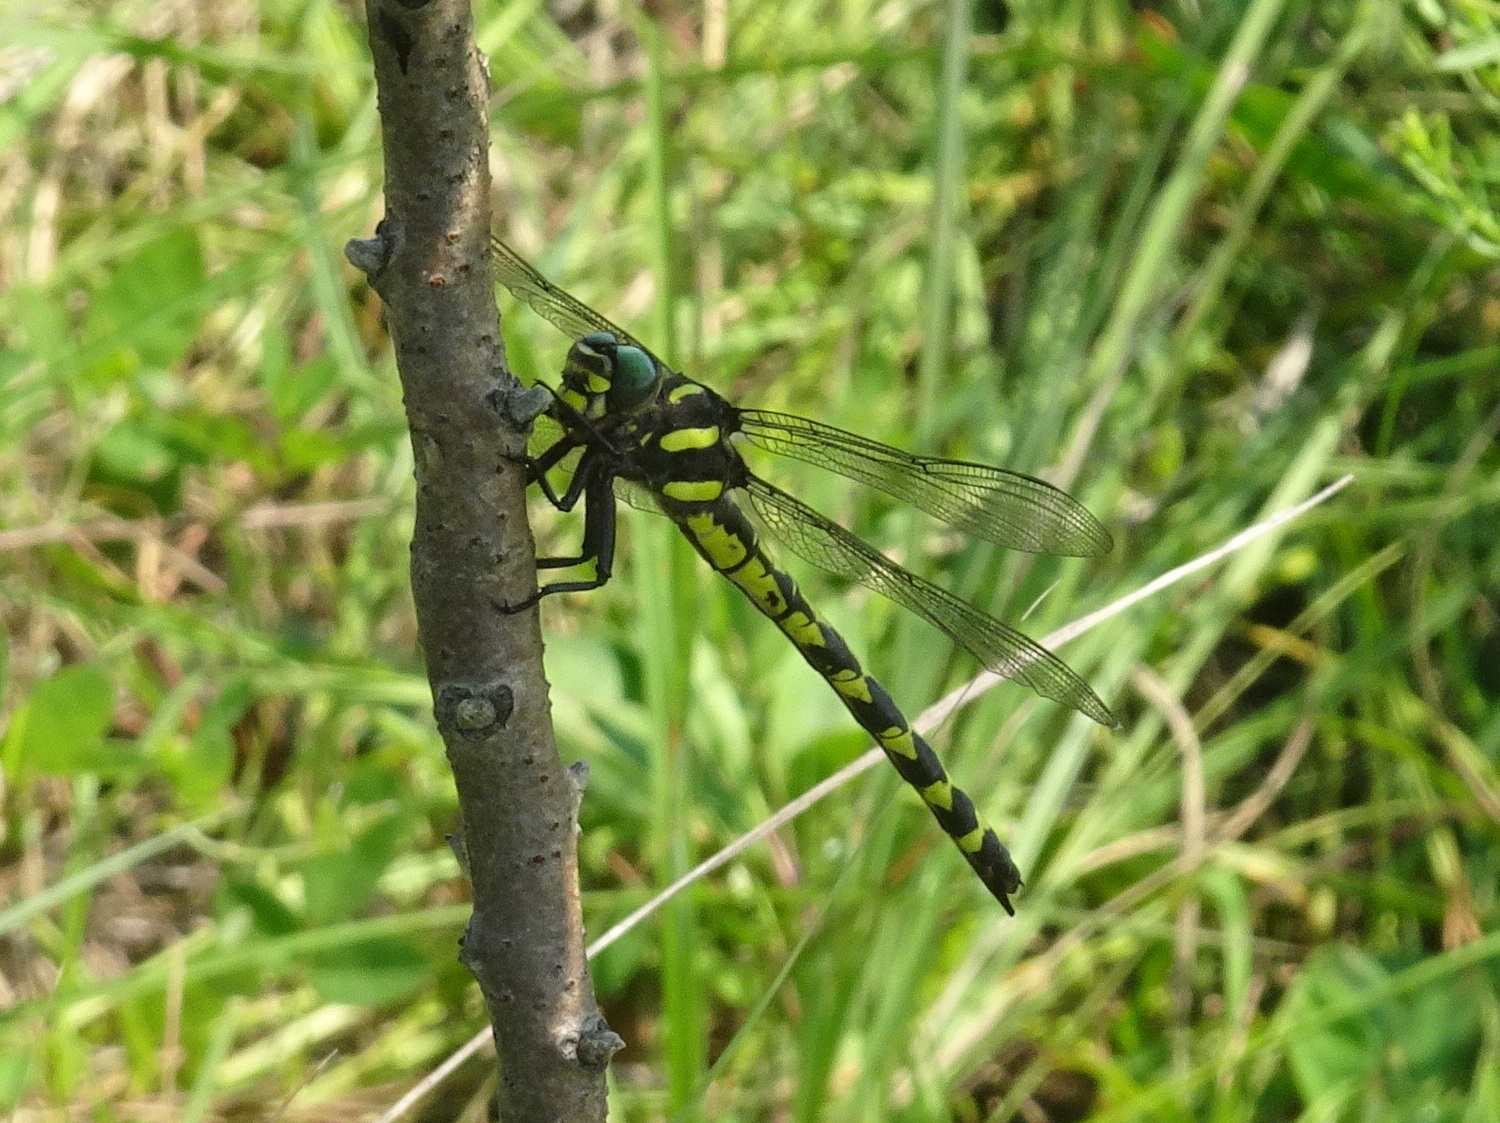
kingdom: Animalia
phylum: Arthropoda
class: Insecta
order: Odonata
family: Cordulegastridae
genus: Cordulegaster
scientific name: Cordulegaster obliqua
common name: Arrowhead spiketail
